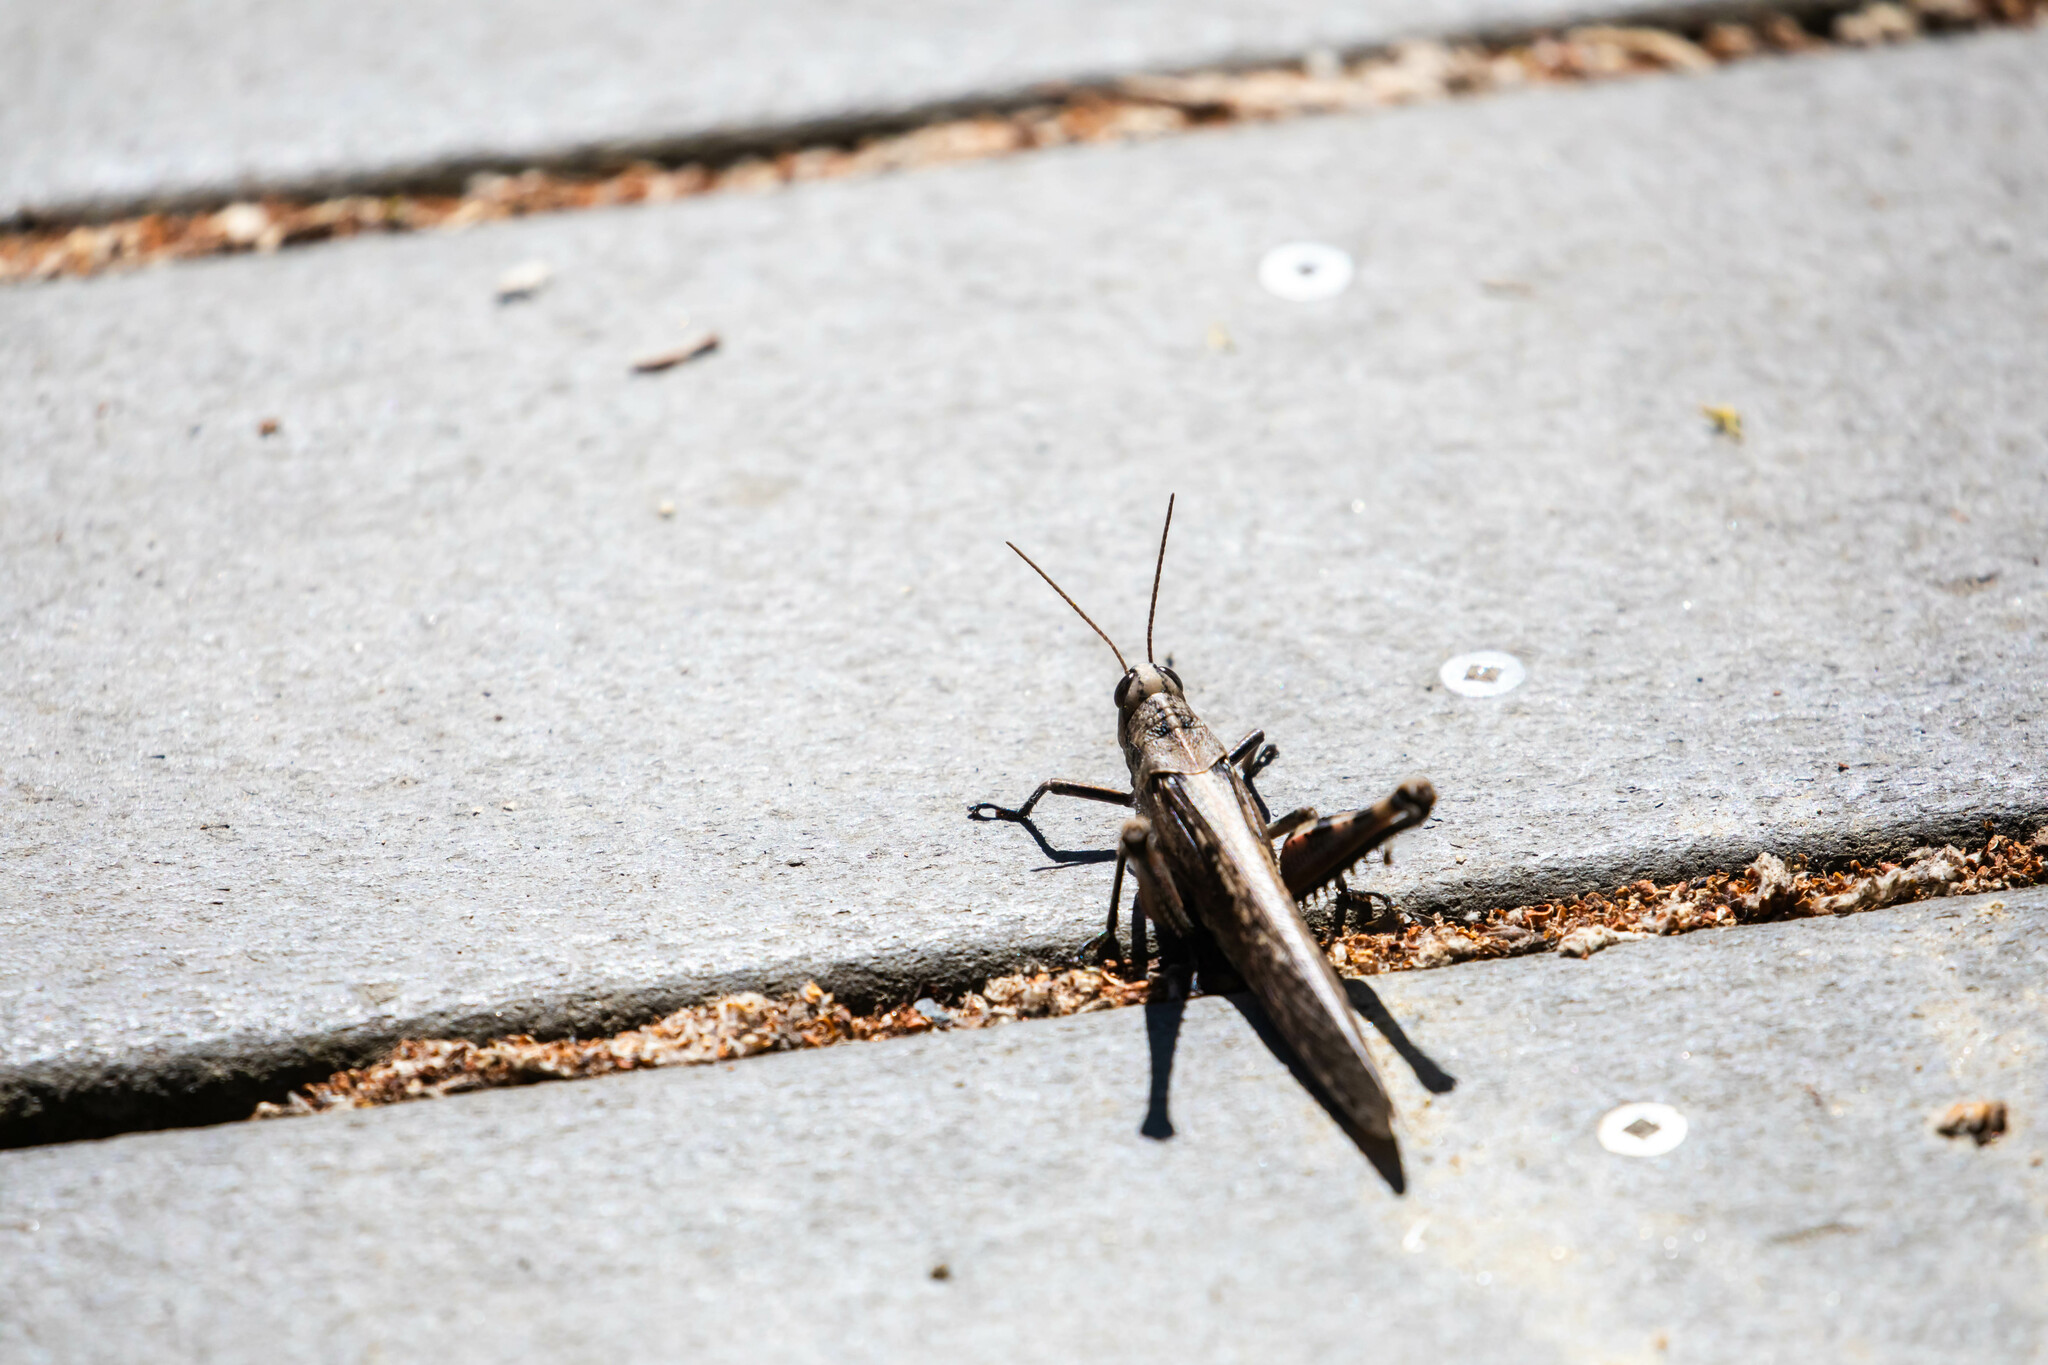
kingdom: Animalia
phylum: Arthropoda
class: Insecta
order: Orthoptera
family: Acrididae
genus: Schistocerca
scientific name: Schistocerca nitens
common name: Vagrant grasshopper
